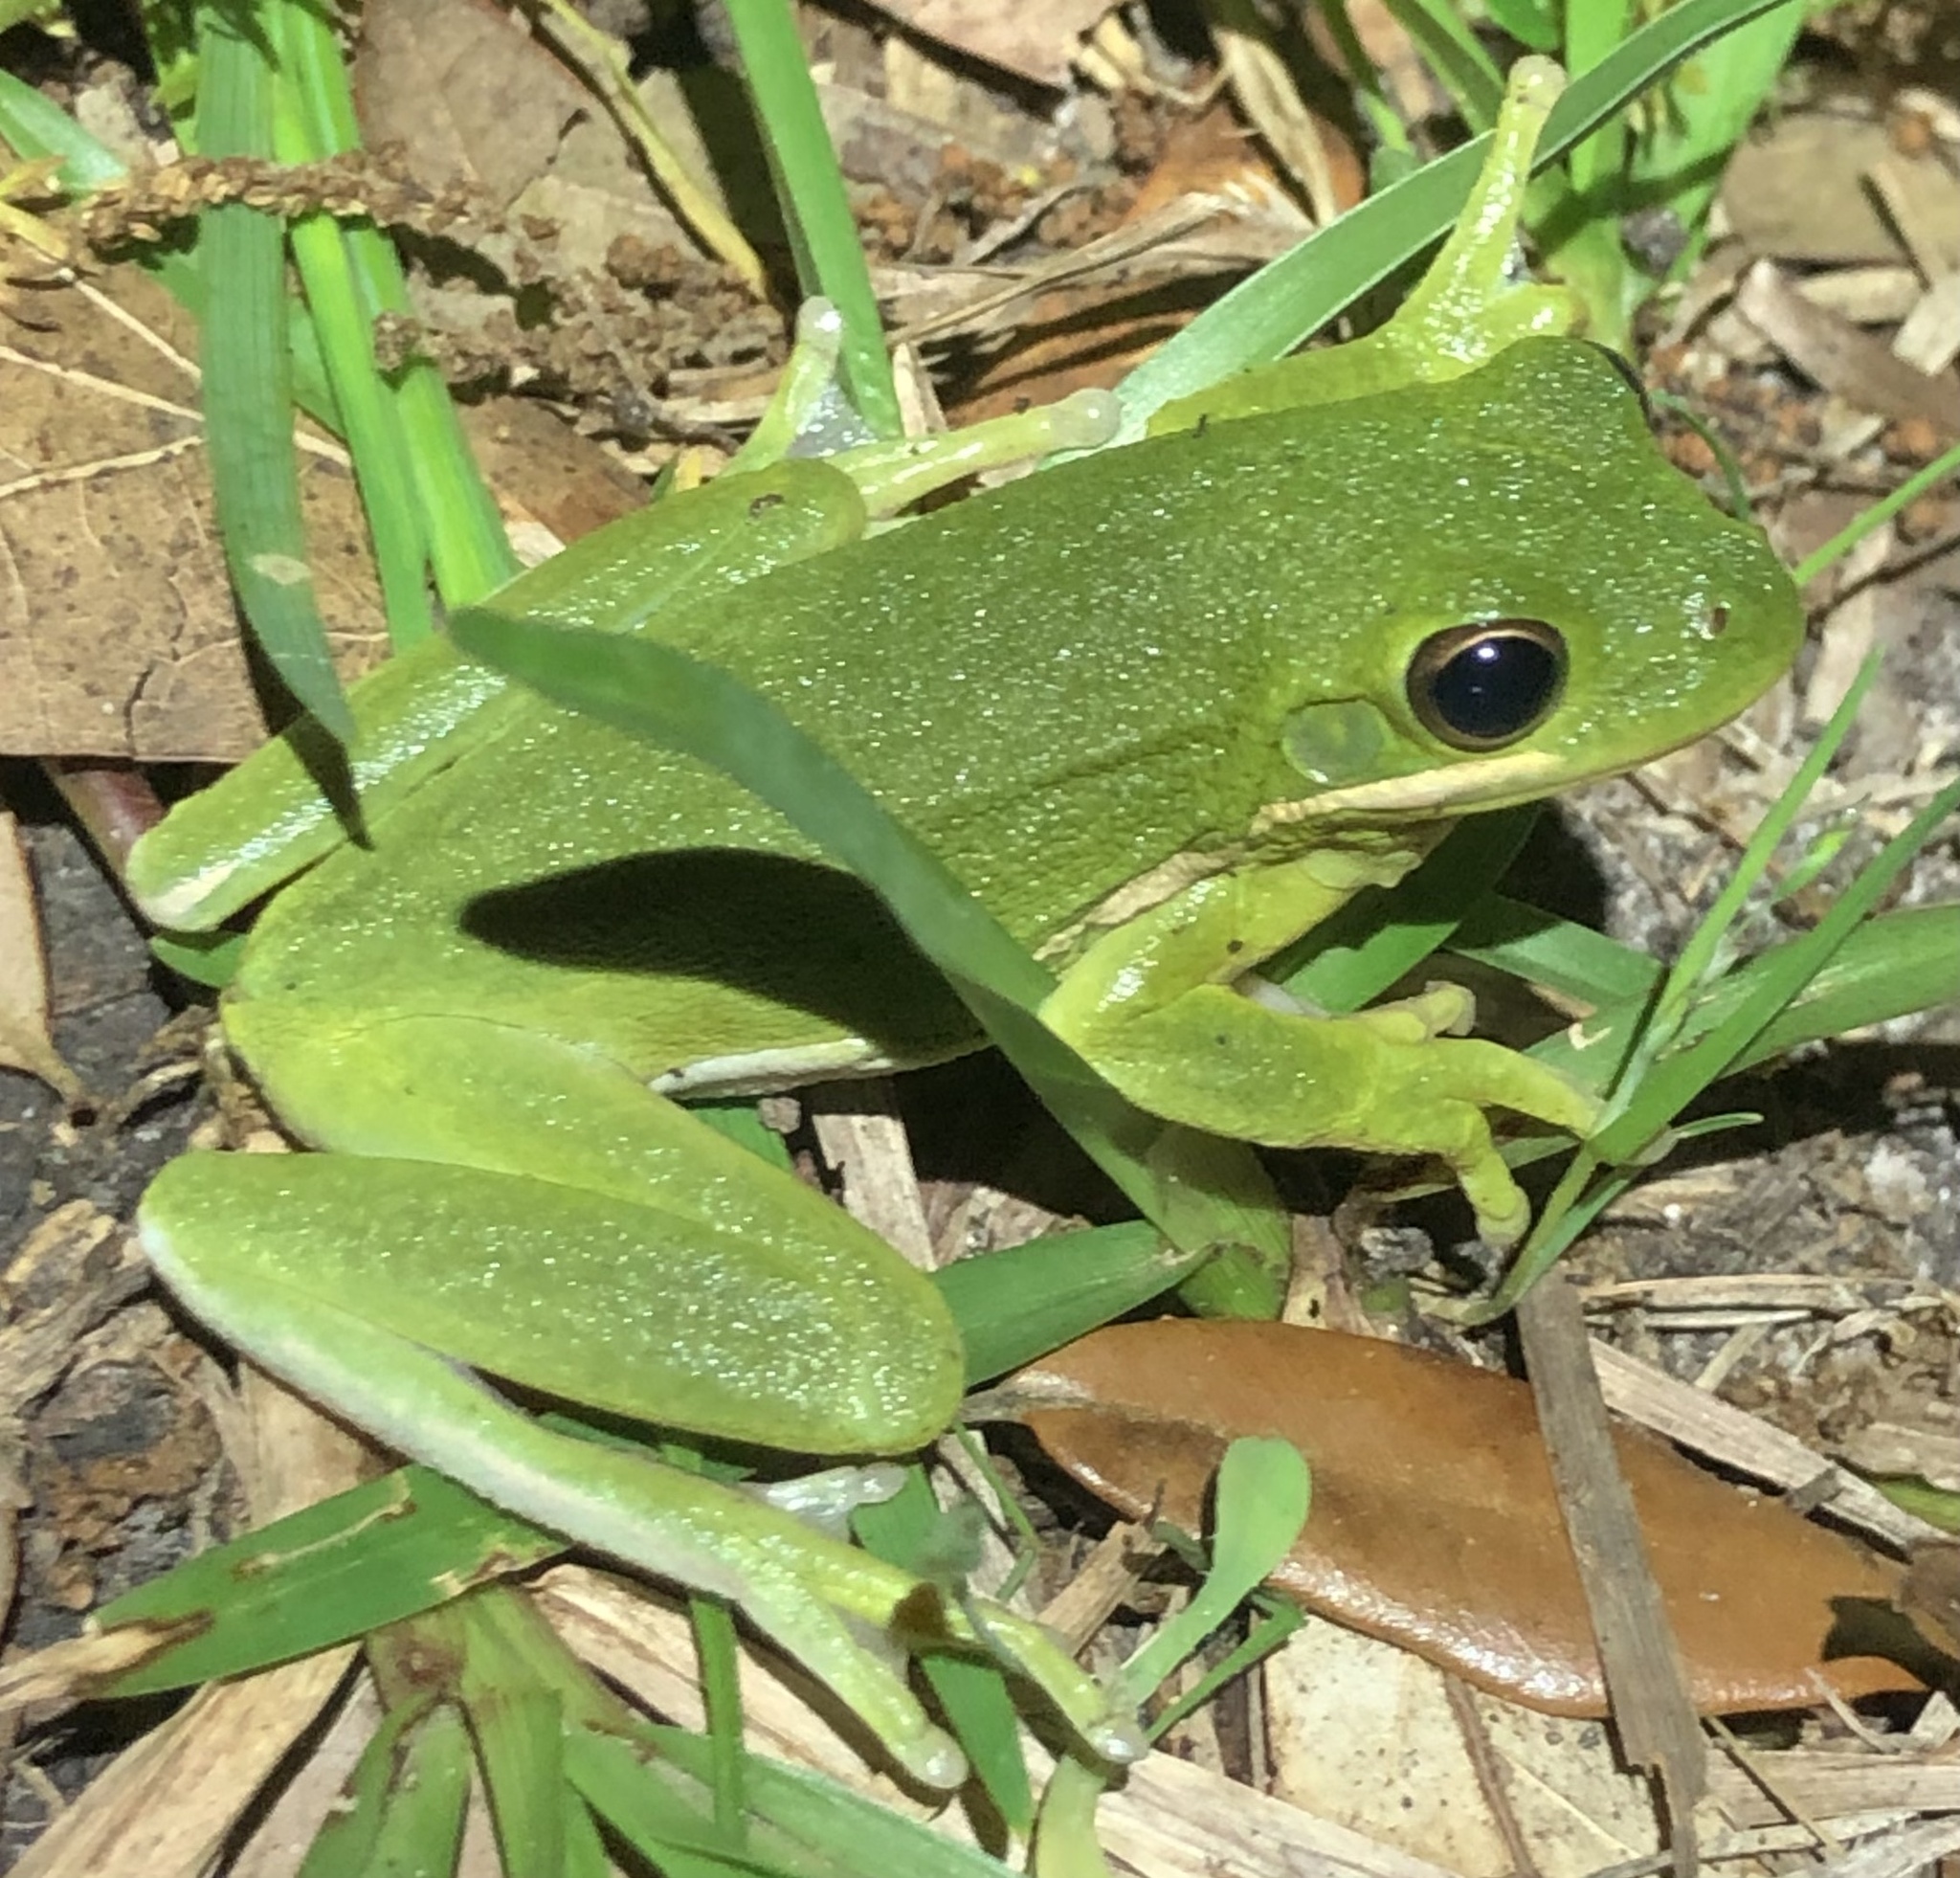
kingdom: Animalia
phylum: Chordata
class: Amphibia
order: Anura
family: Hylidae
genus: Dryophytes
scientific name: Dryophytes cinereus
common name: Green treefrog
